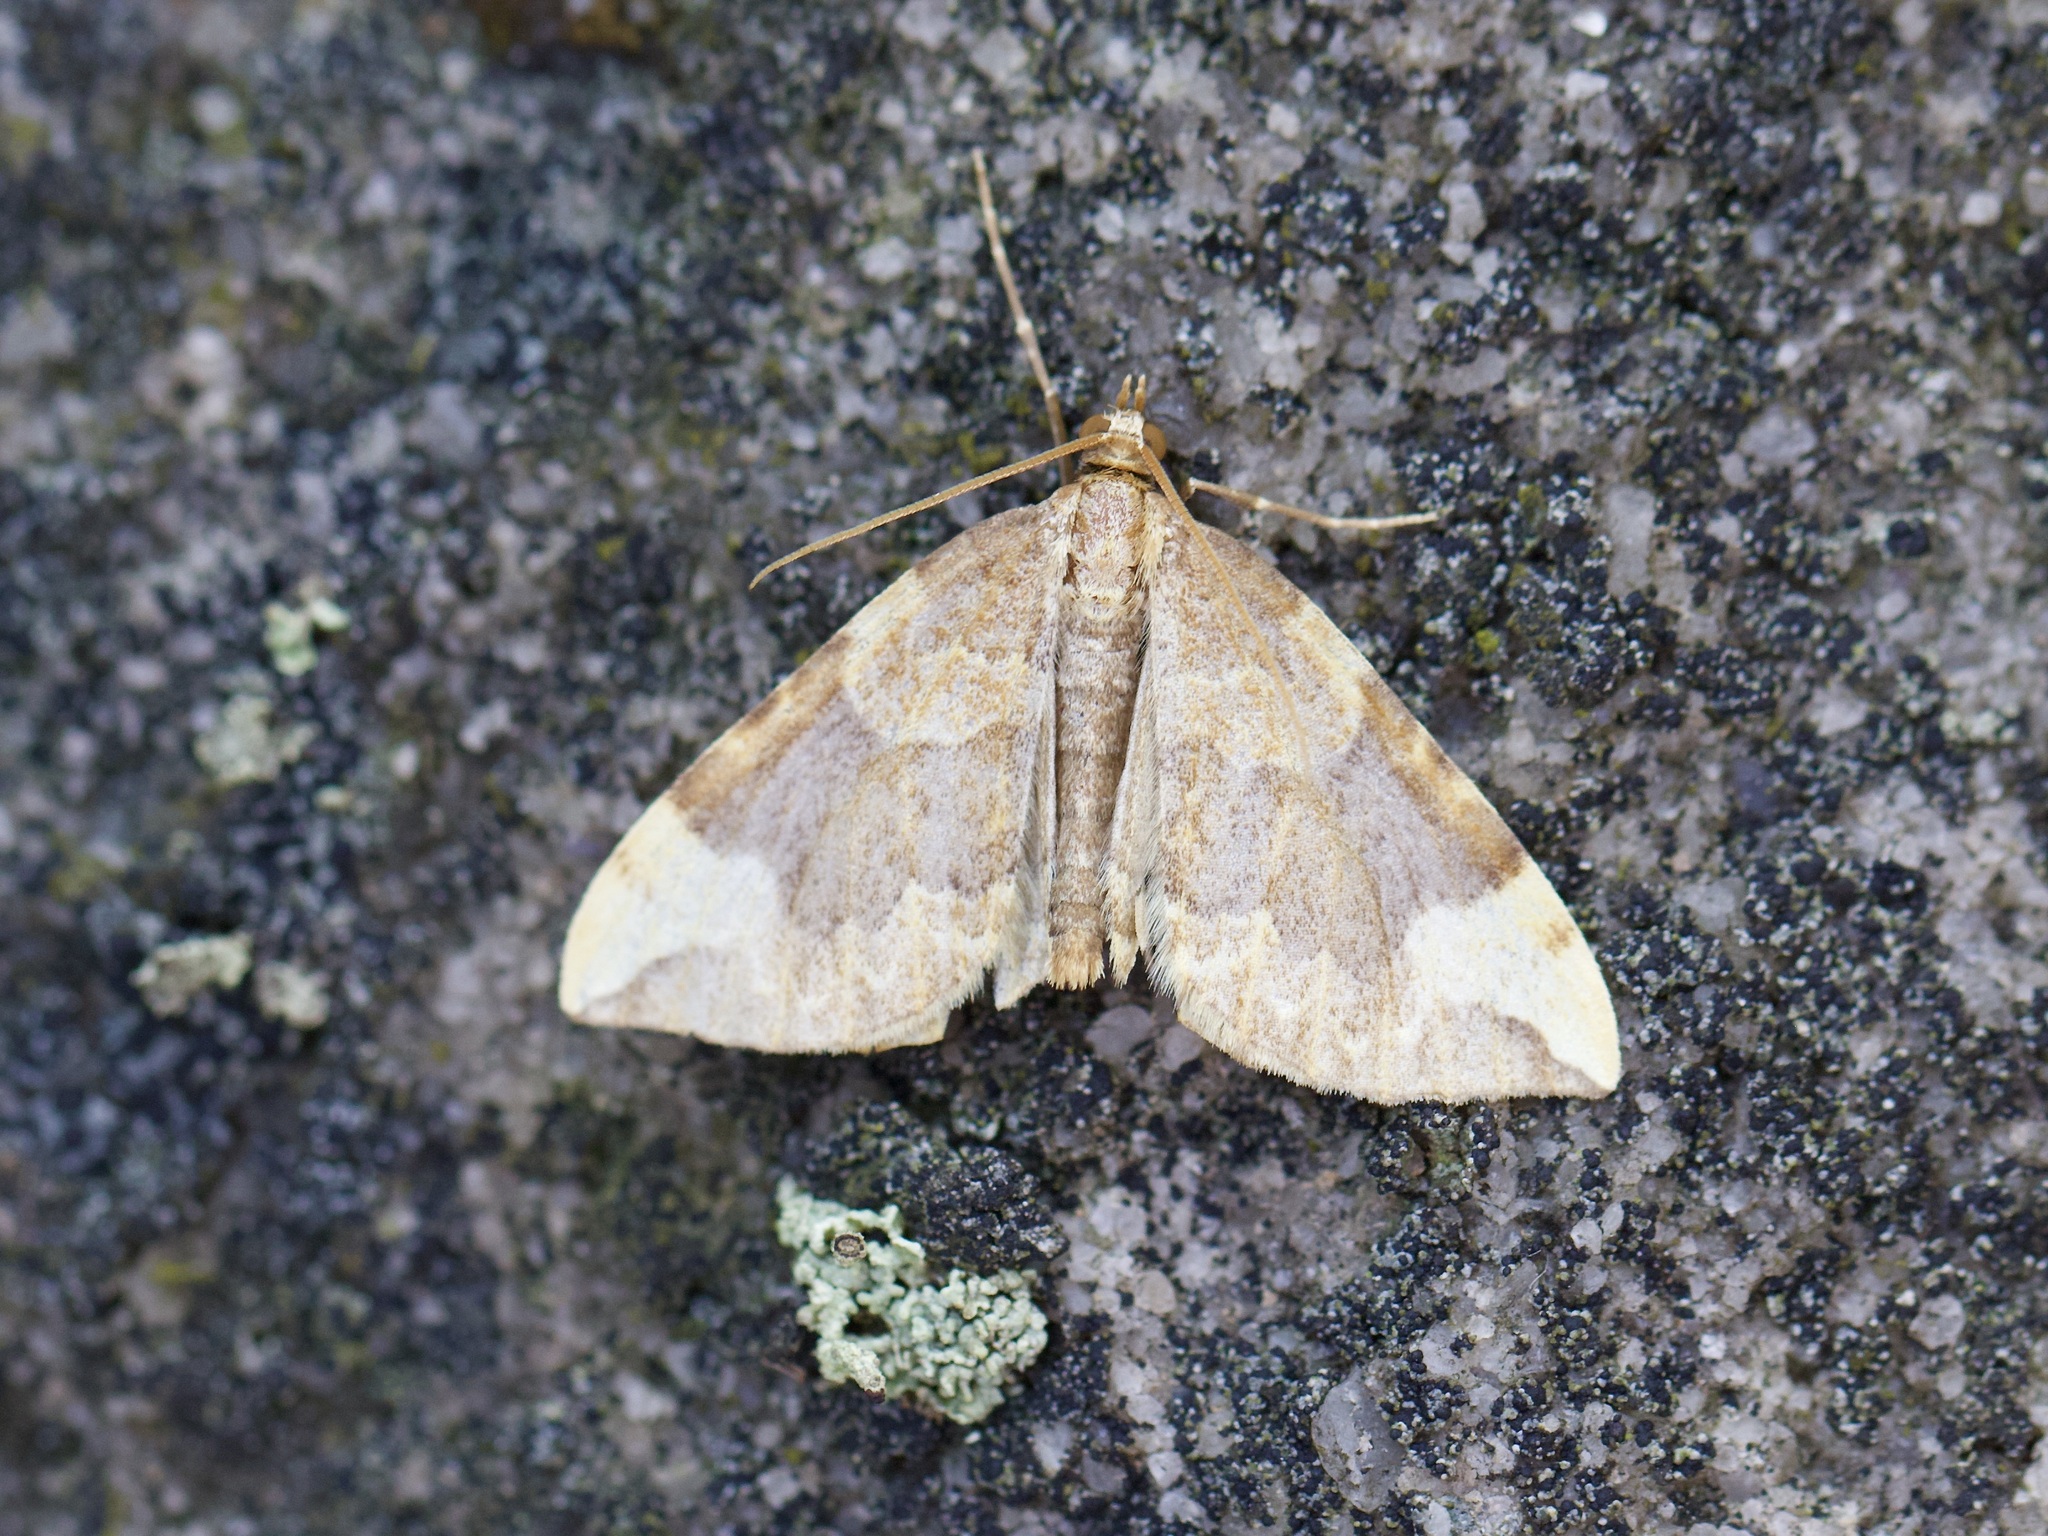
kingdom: Animalia
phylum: Arthropoda
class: Insecta
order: Lepidoptera
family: Geometridae
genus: Eulithis
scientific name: Eulithis populata
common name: Northern spinach
